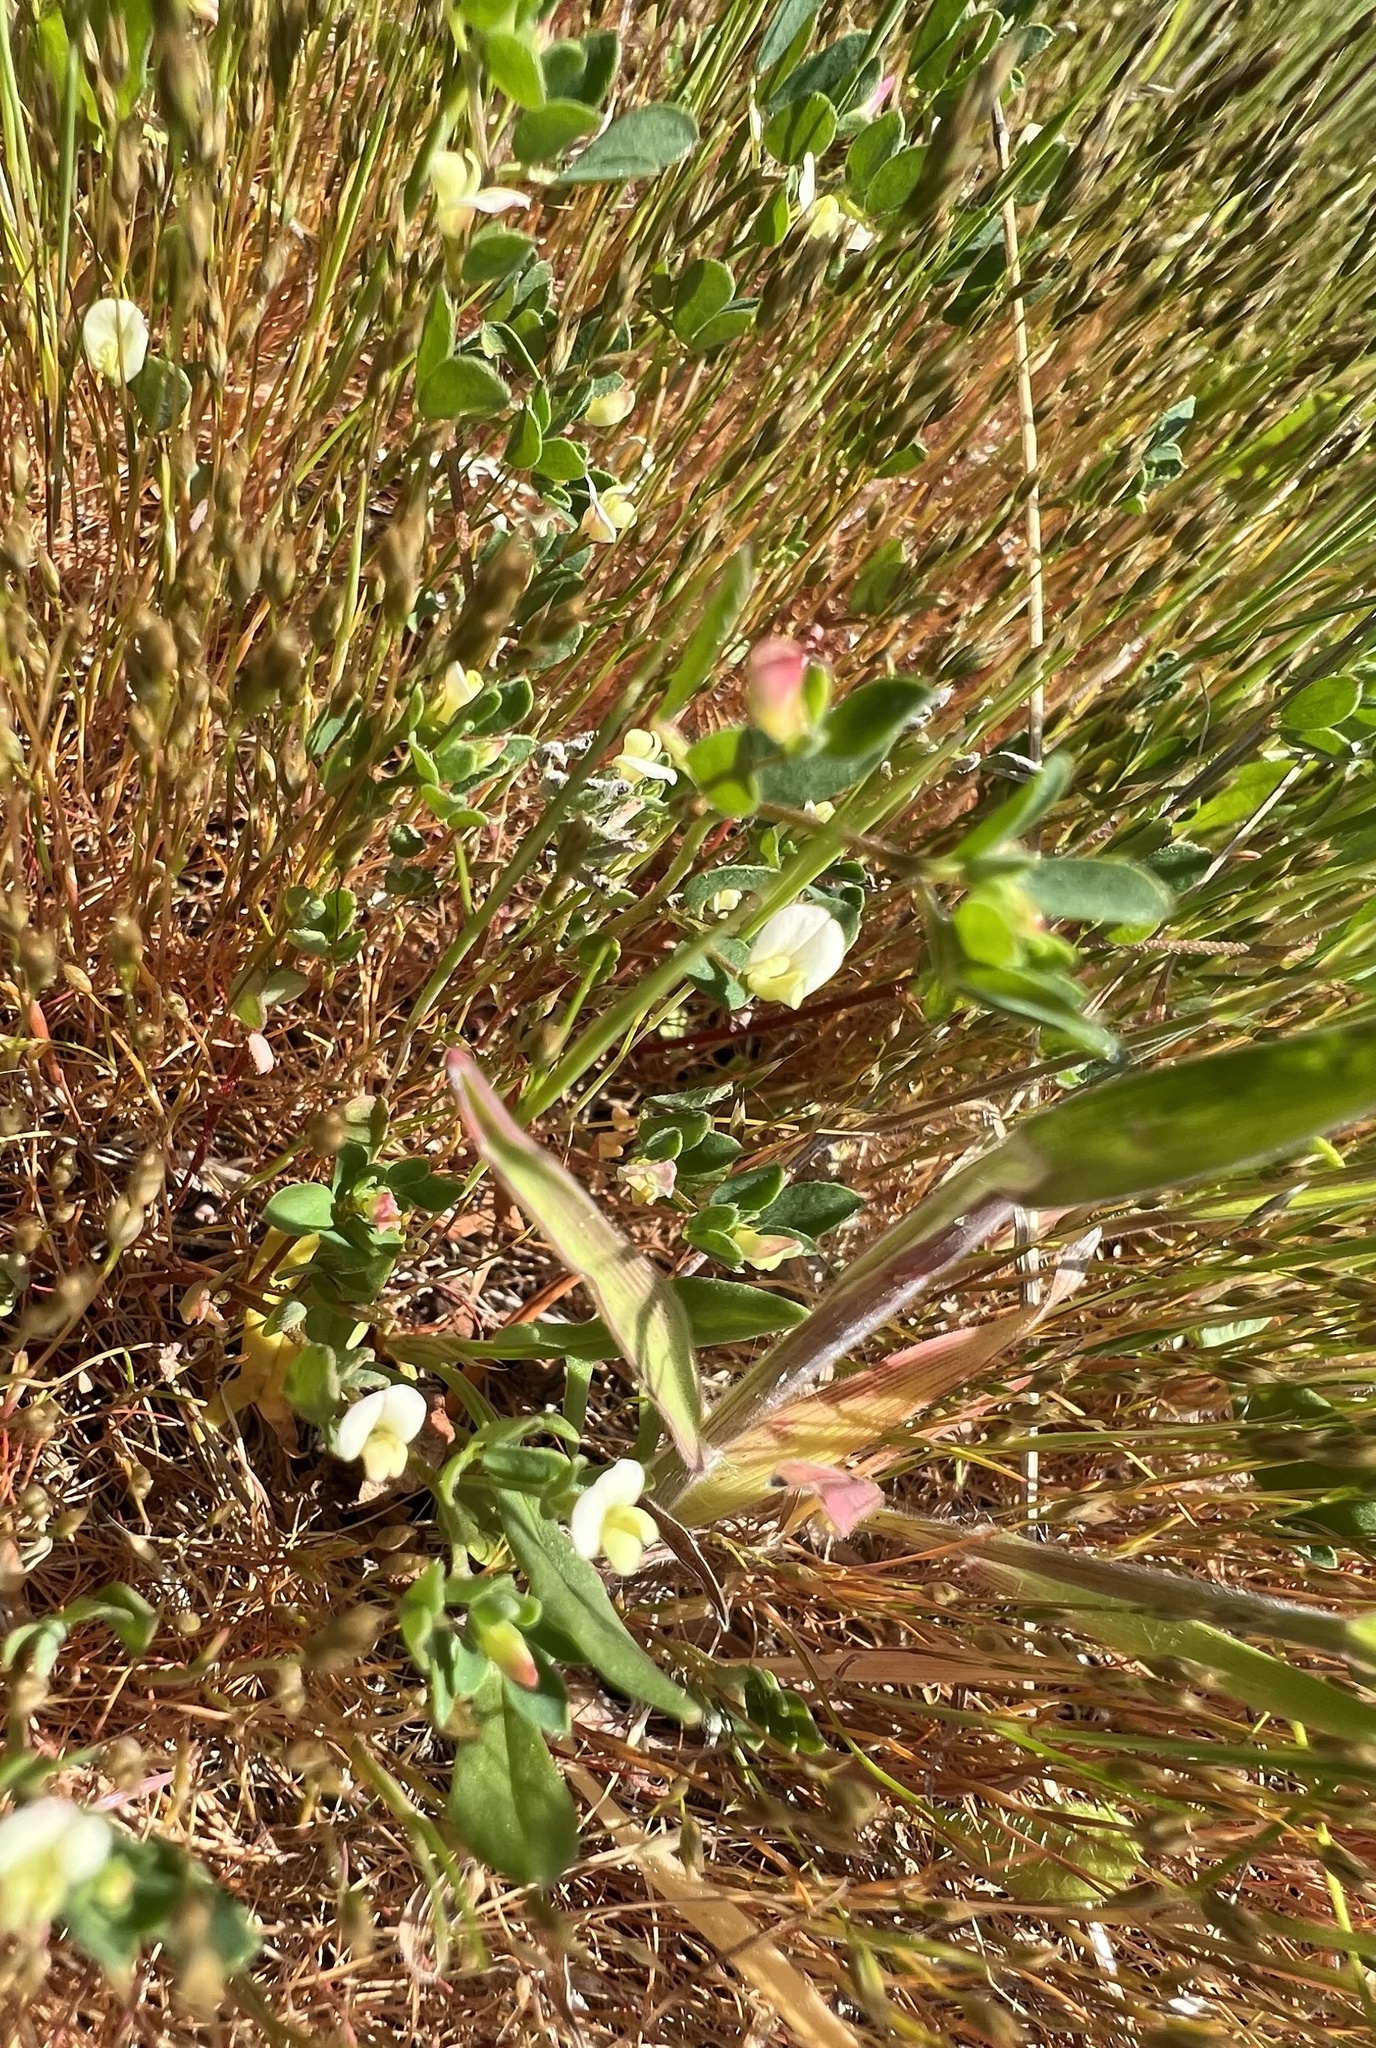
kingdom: Plantae
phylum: Tracheophyta
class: Magnoliopsida
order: Fabales
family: Fabaceae
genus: Trifolium
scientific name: Trifolium subterraneum
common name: Subterranean clover
